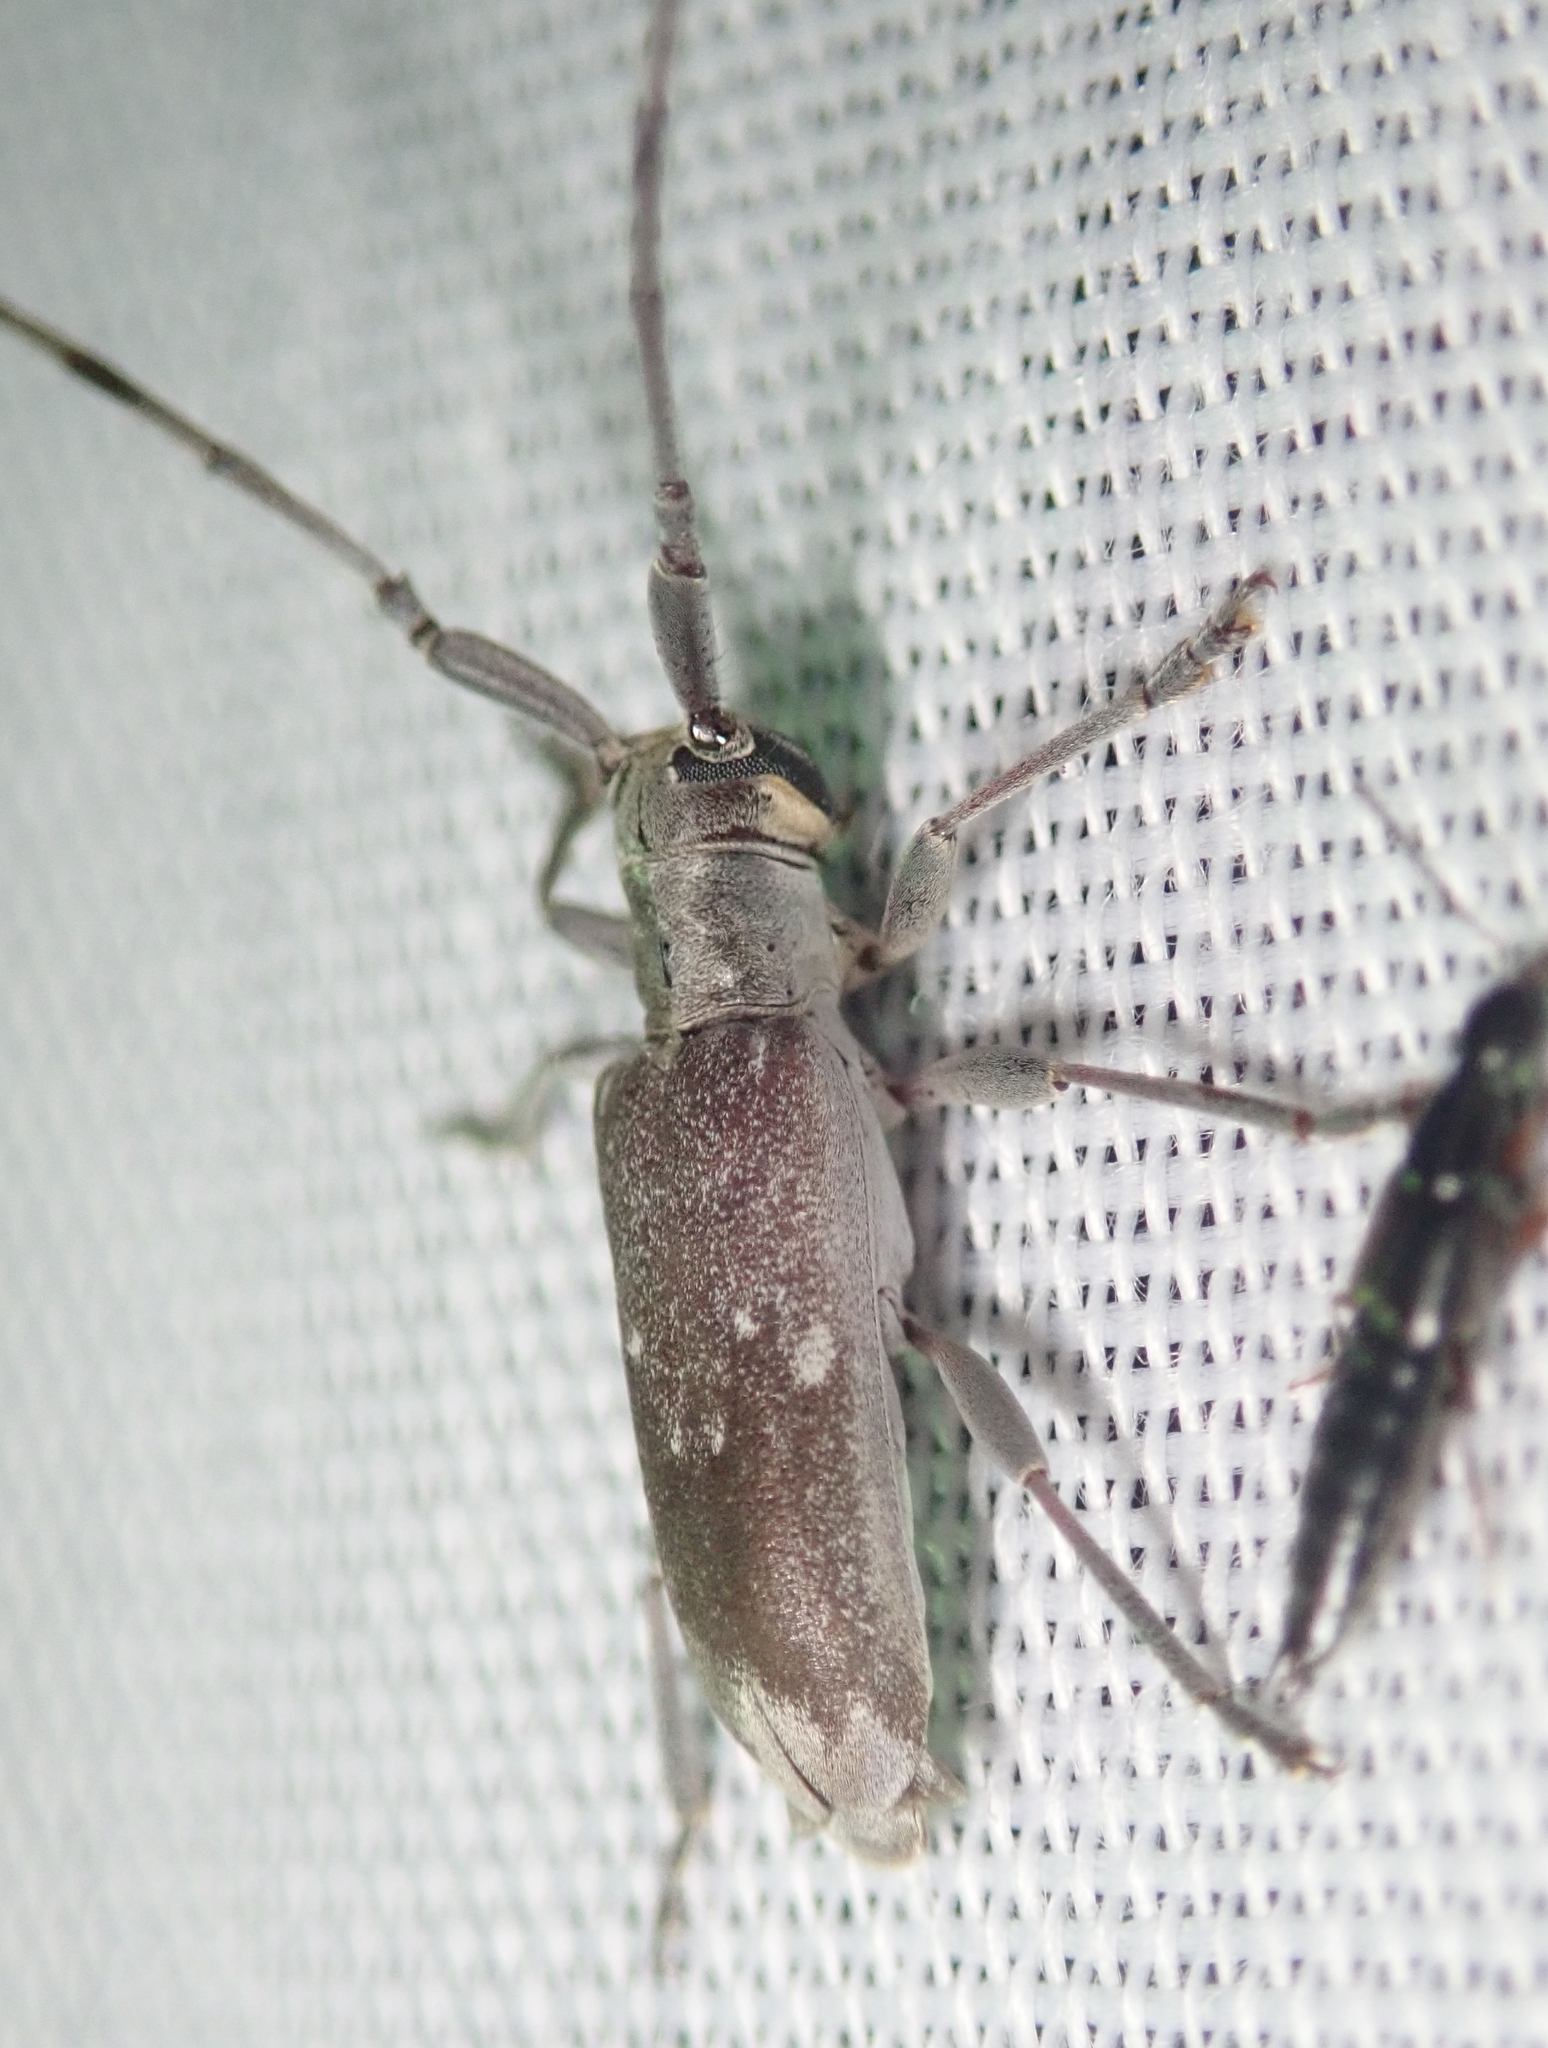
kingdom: Animalia
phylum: Arthropoda
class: Insecta
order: Coleoptera
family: Cerambycidae
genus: Eunidia
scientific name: Eunidia thomseni
